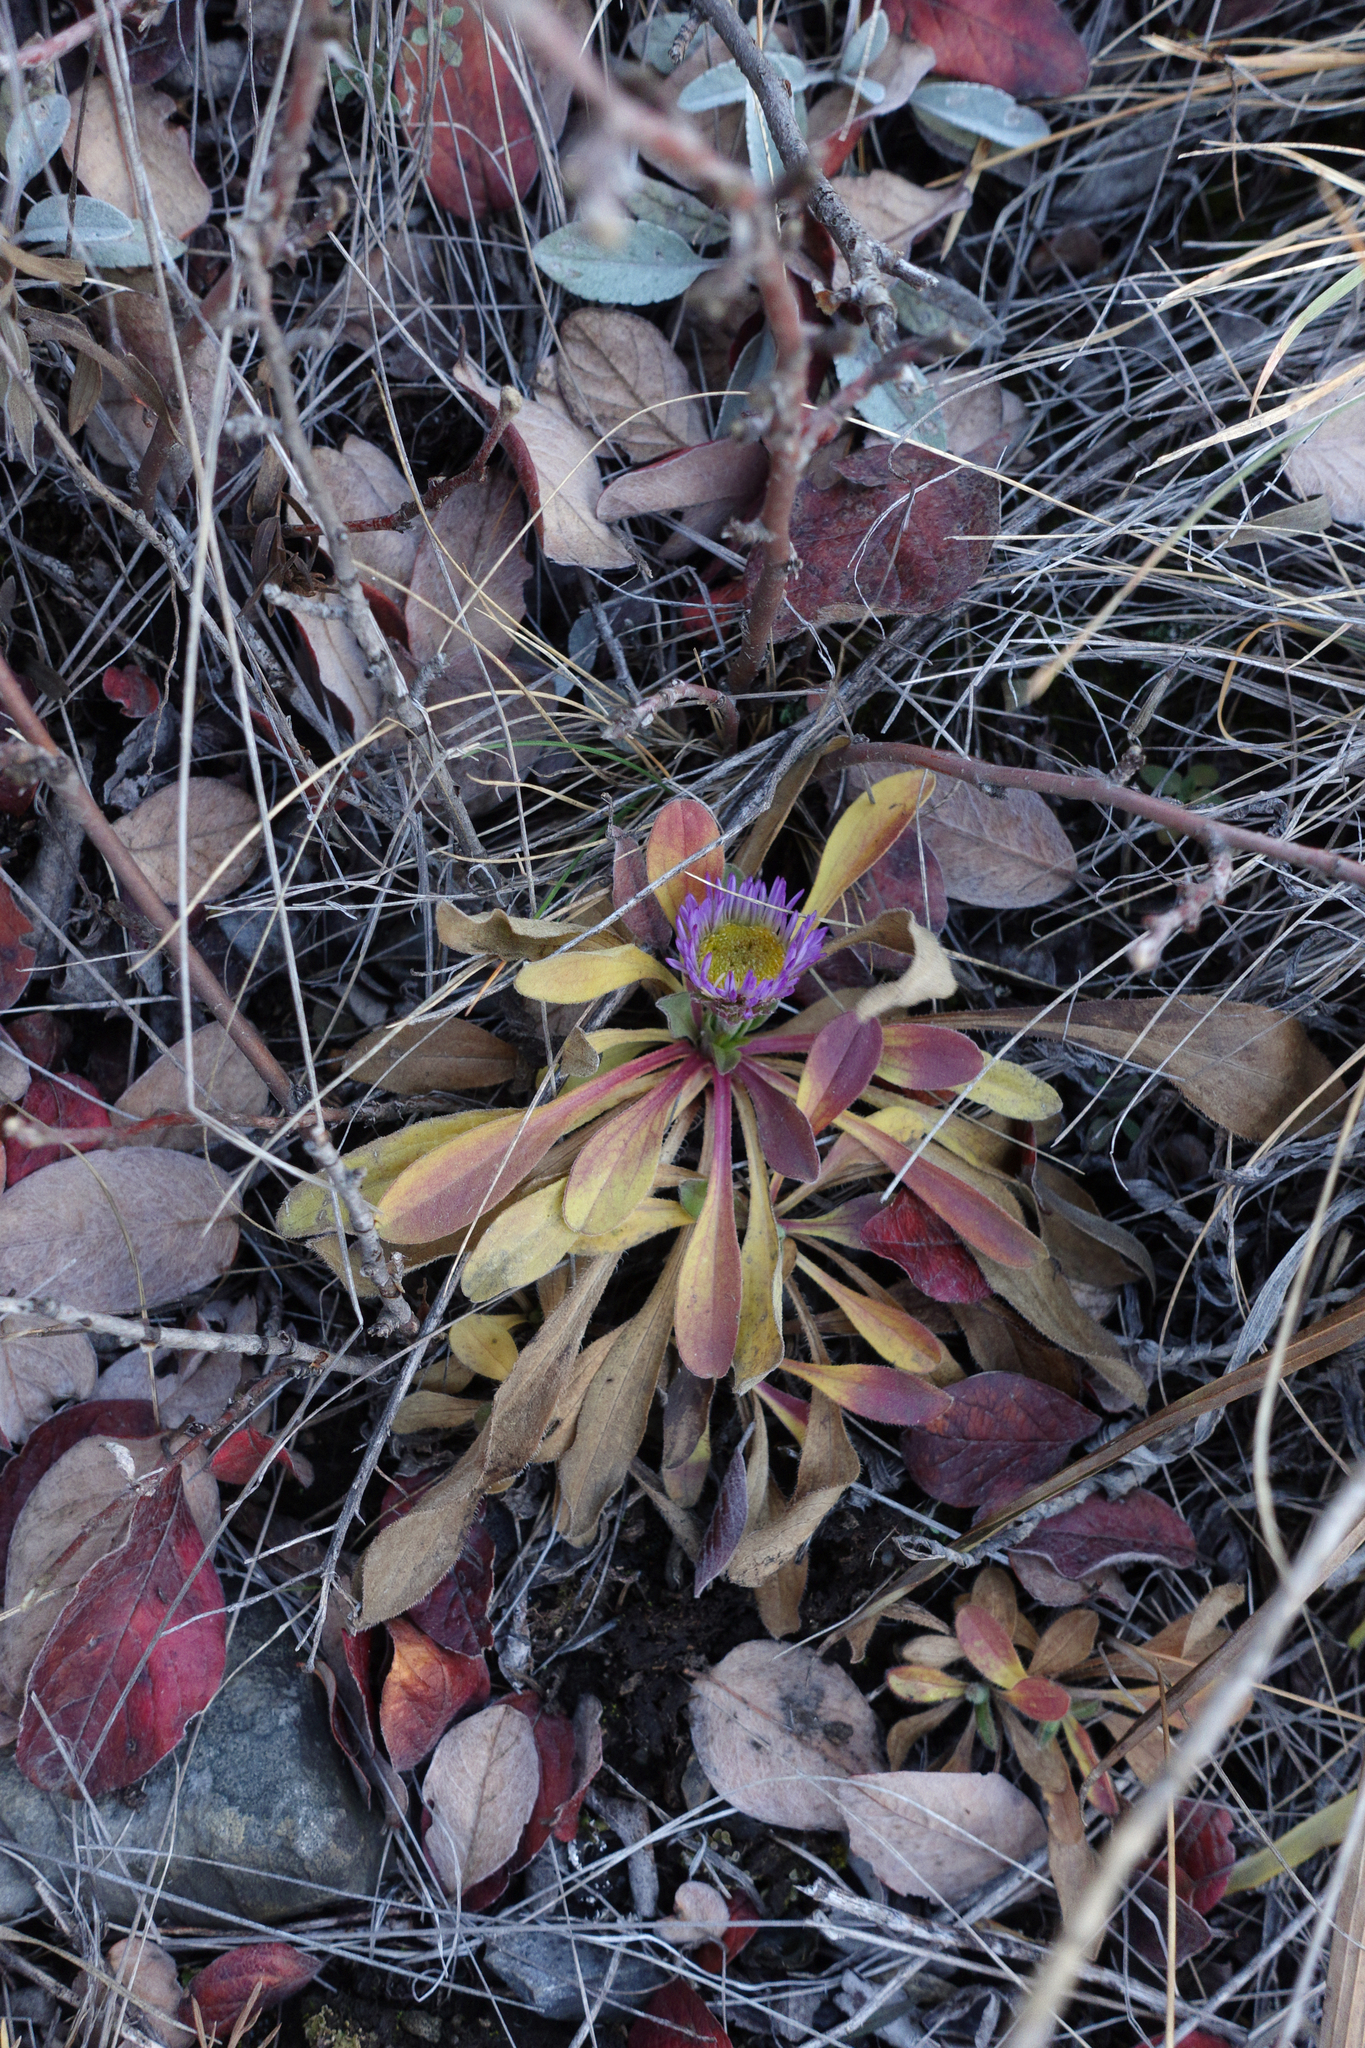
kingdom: Plantae
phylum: Tracheophyta
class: Magnoliopsida
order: Asterales
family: Asteraceae
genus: Aster
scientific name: Aster alpinus
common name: Alpine aster
